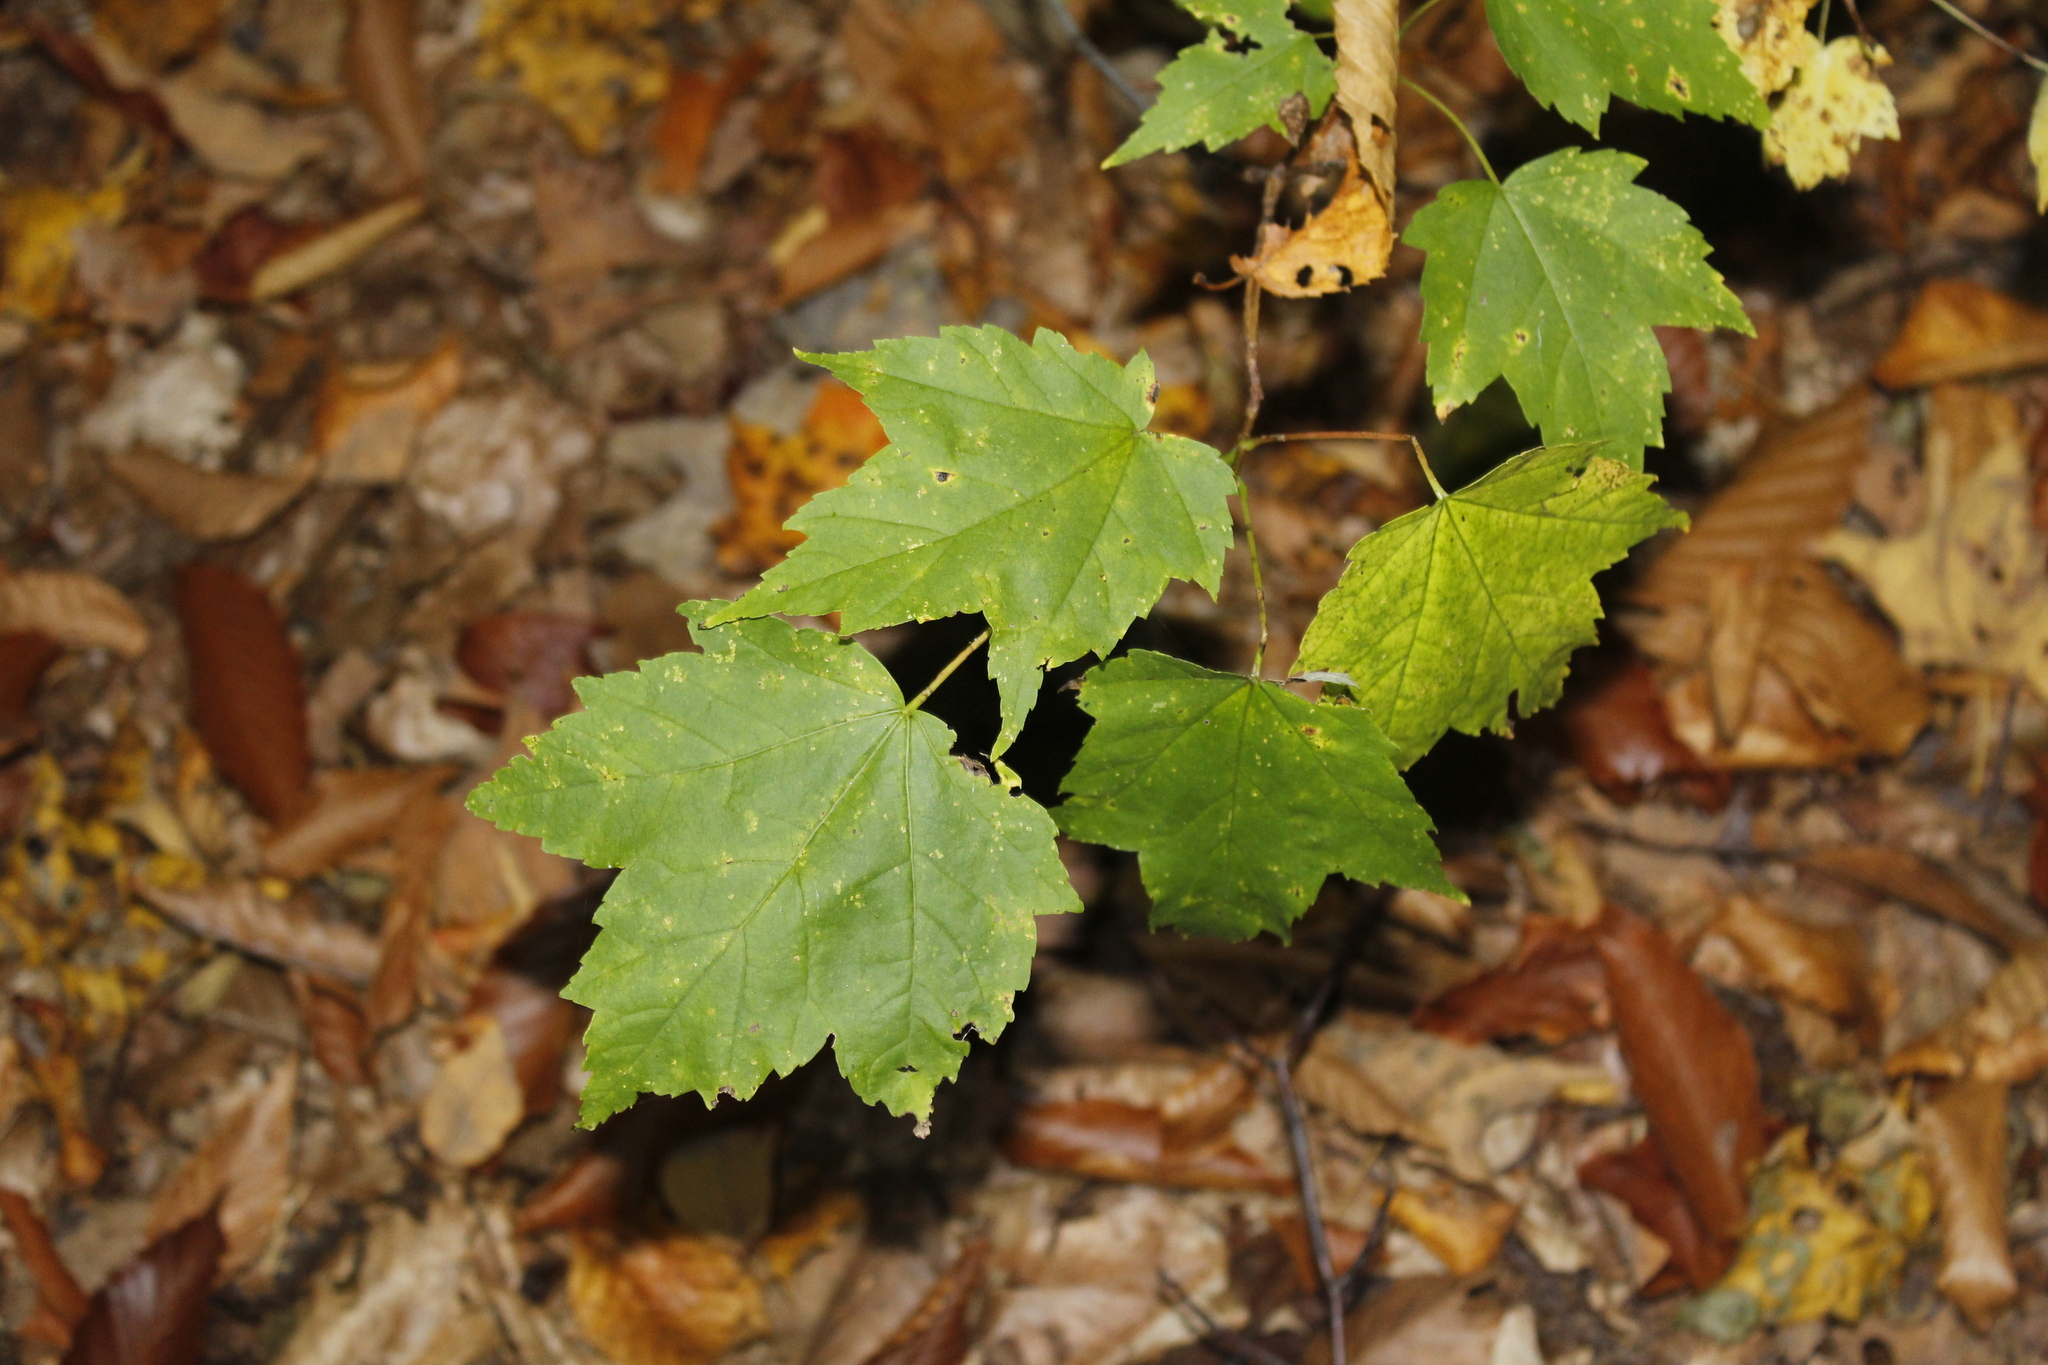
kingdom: Plantae
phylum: Tracheophyta
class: Magnoliopsida
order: Sapindales
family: Sapindaceae
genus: Acer
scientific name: Acer rubrum
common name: Red maple
